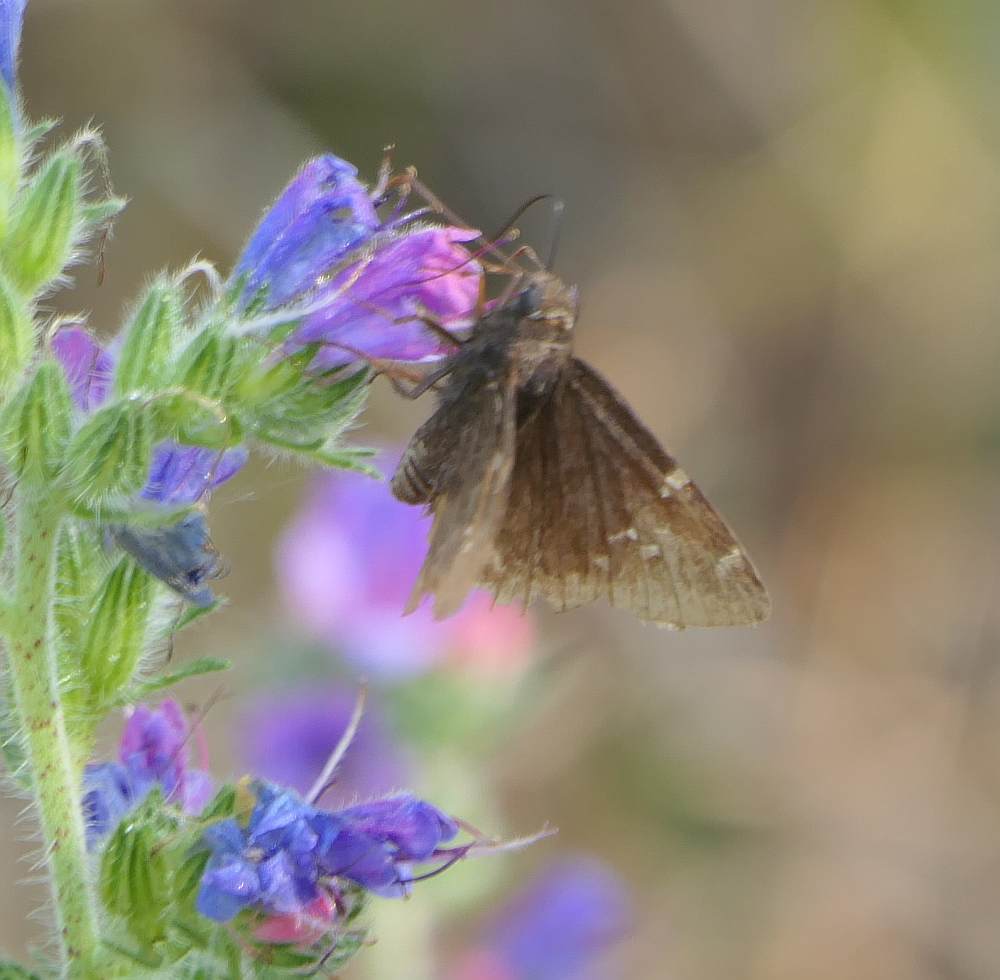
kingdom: Animalia
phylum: Arthropoda
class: Insecta
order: Lepidoptera
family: Hesperiidae
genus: Thorybes
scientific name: Thorybes pylades
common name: Northern cloudywing
